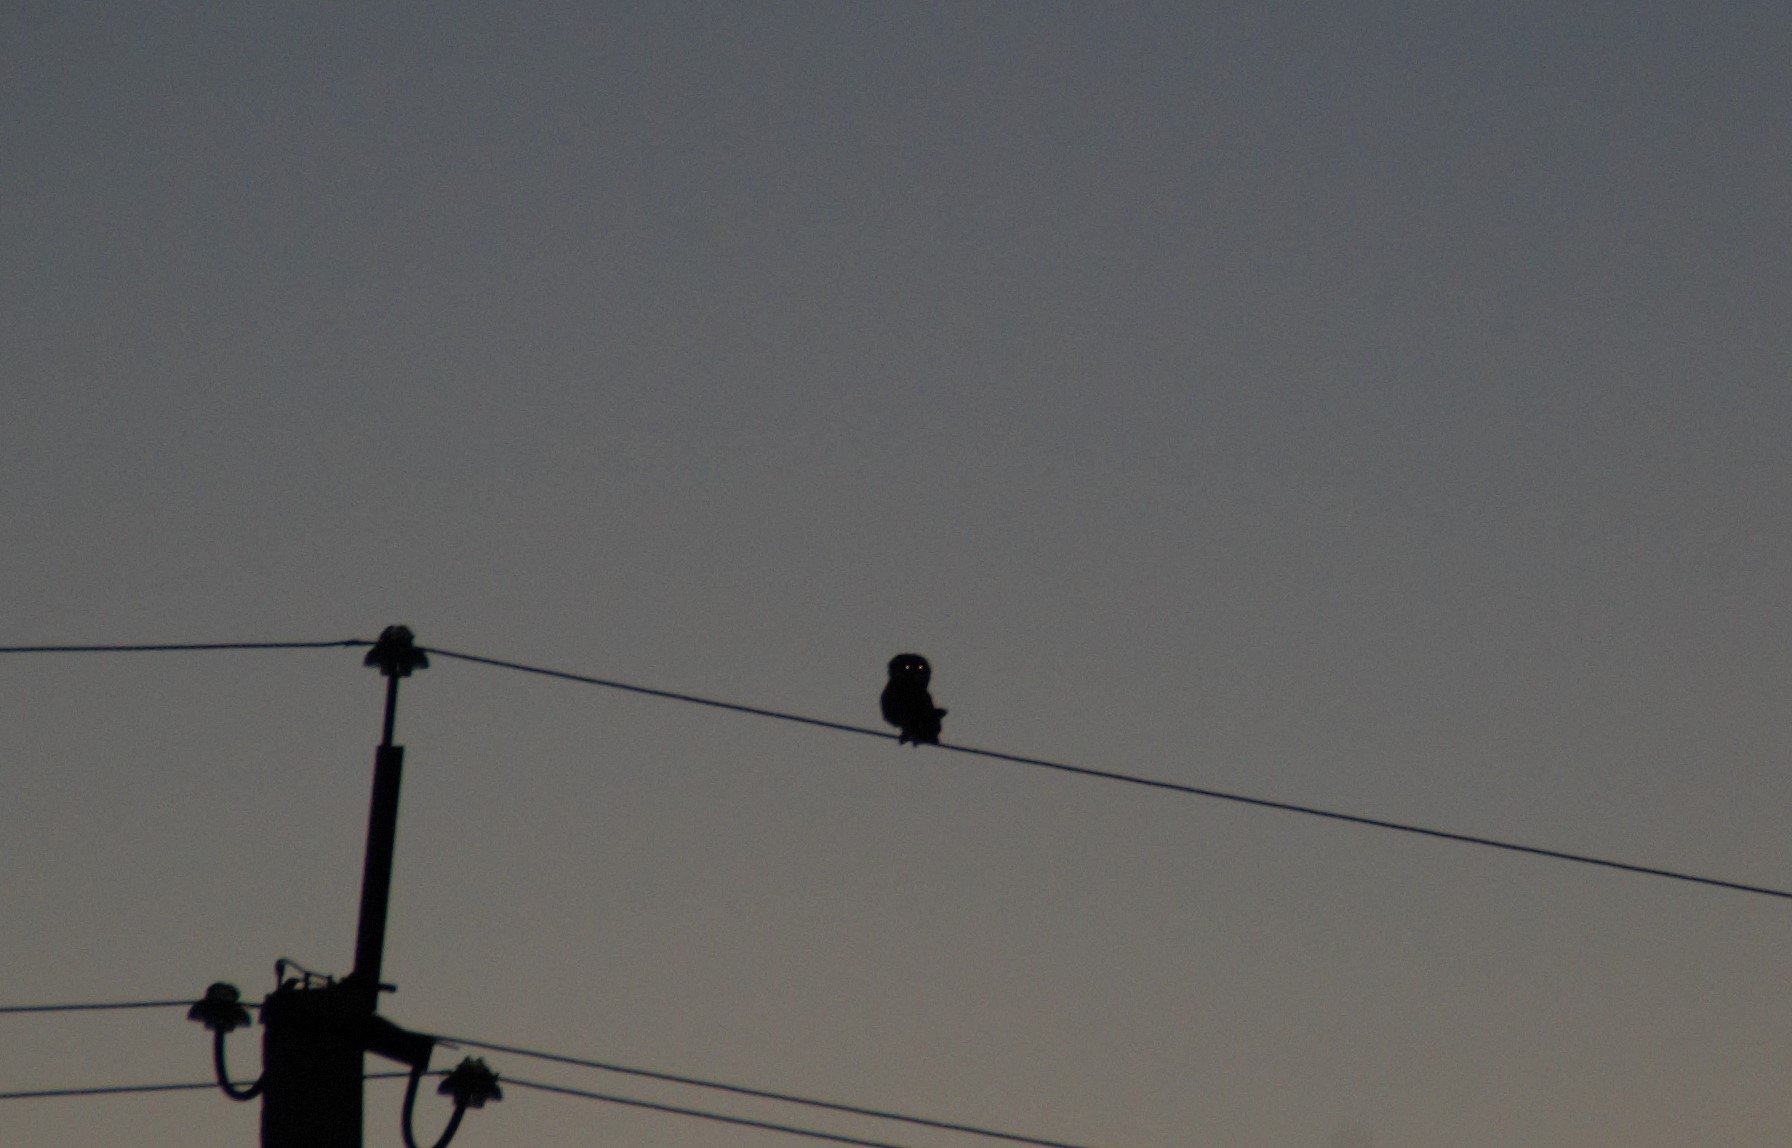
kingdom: Animalia
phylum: Chordata
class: Aves
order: Strigiformes
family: Strigidae
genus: Asio
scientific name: Asio flammeus
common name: Short-eared owl
